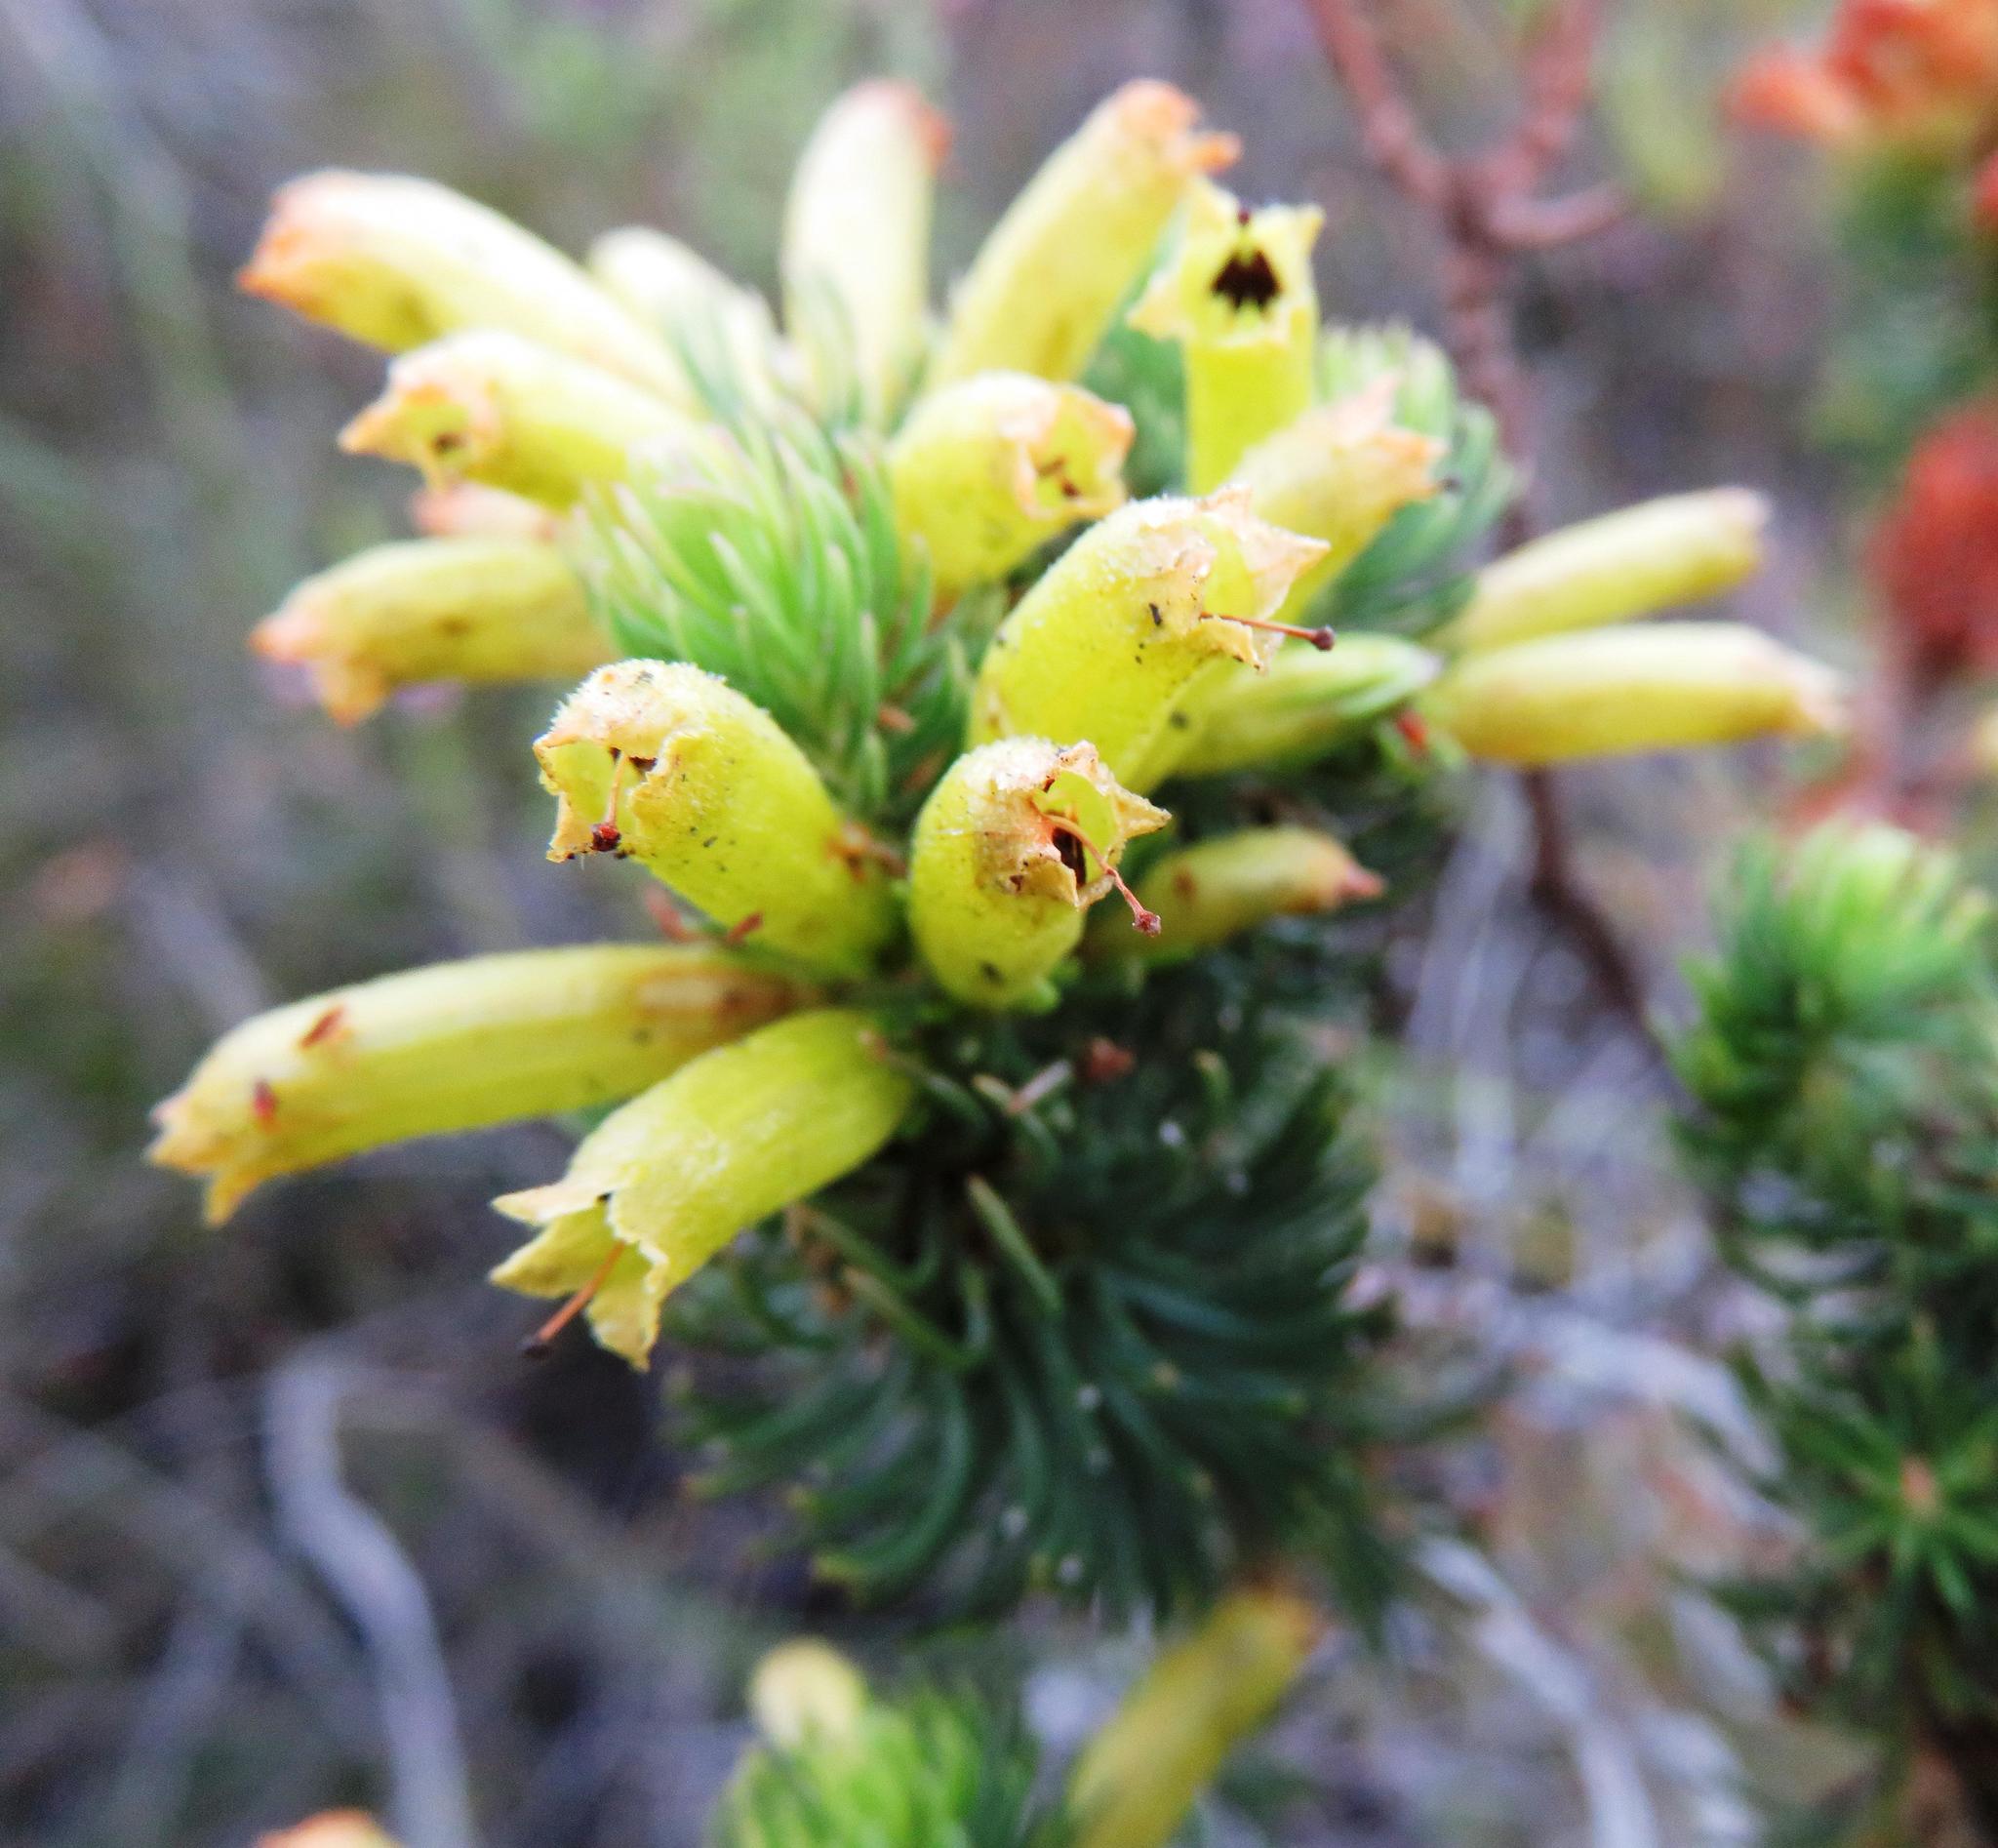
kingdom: Plantae
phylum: Tracheophyta
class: Magnoliopsida
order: Ericales
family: Ericaceae
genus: Erica
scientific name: Erica viscaria
